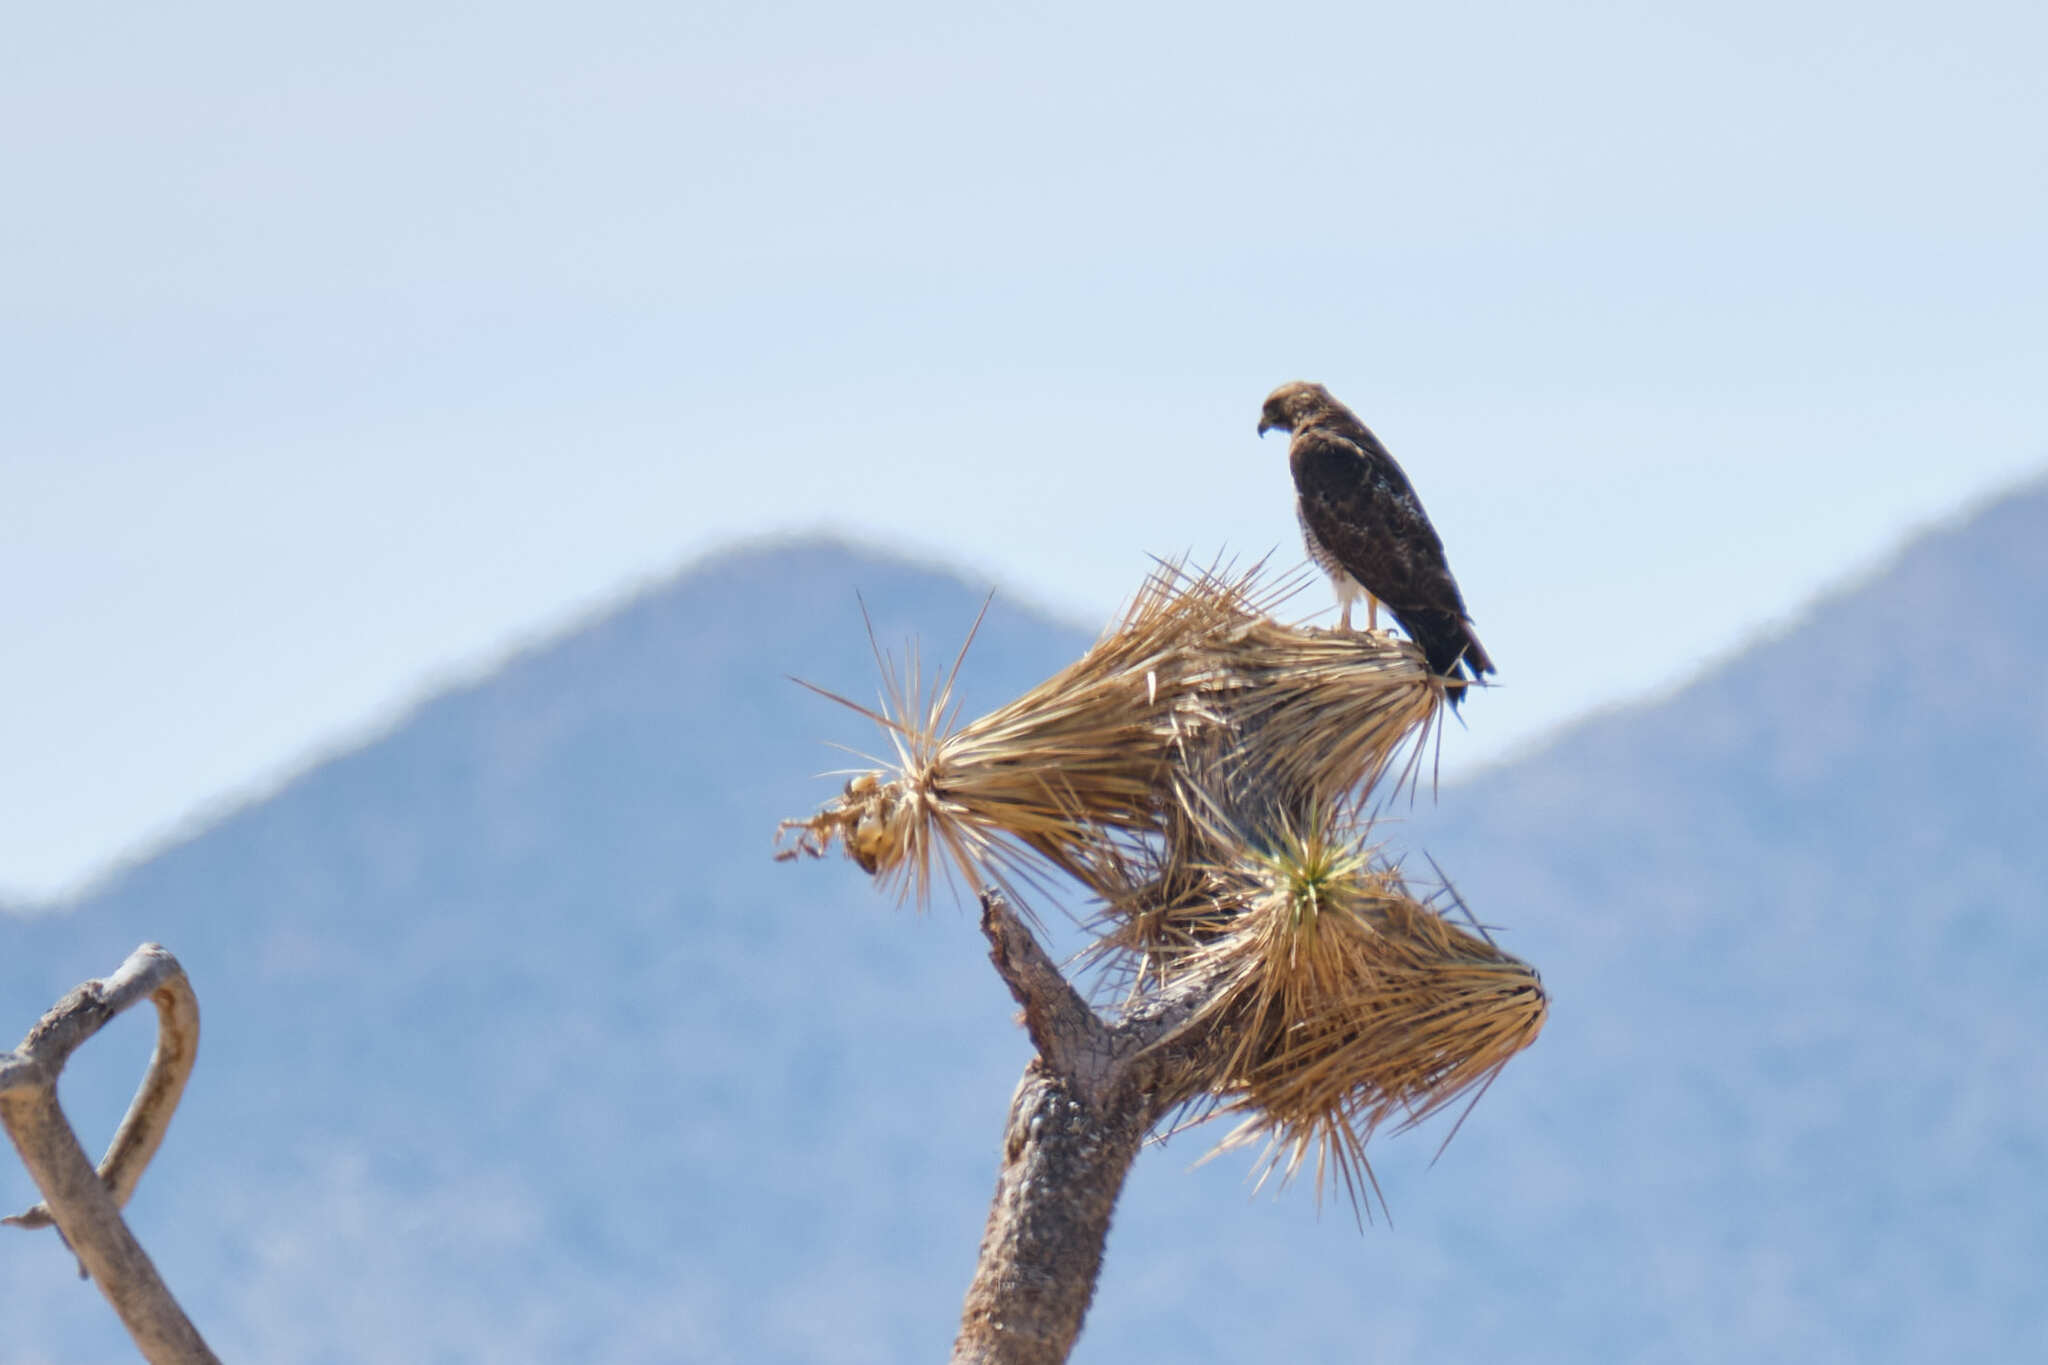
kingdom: Animalia
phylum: Chordata
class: Aves
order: Accipitriformes
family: Accipitridae
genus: Buteo
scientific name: Buteo jamaicensis
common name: Red-tailed hawk
